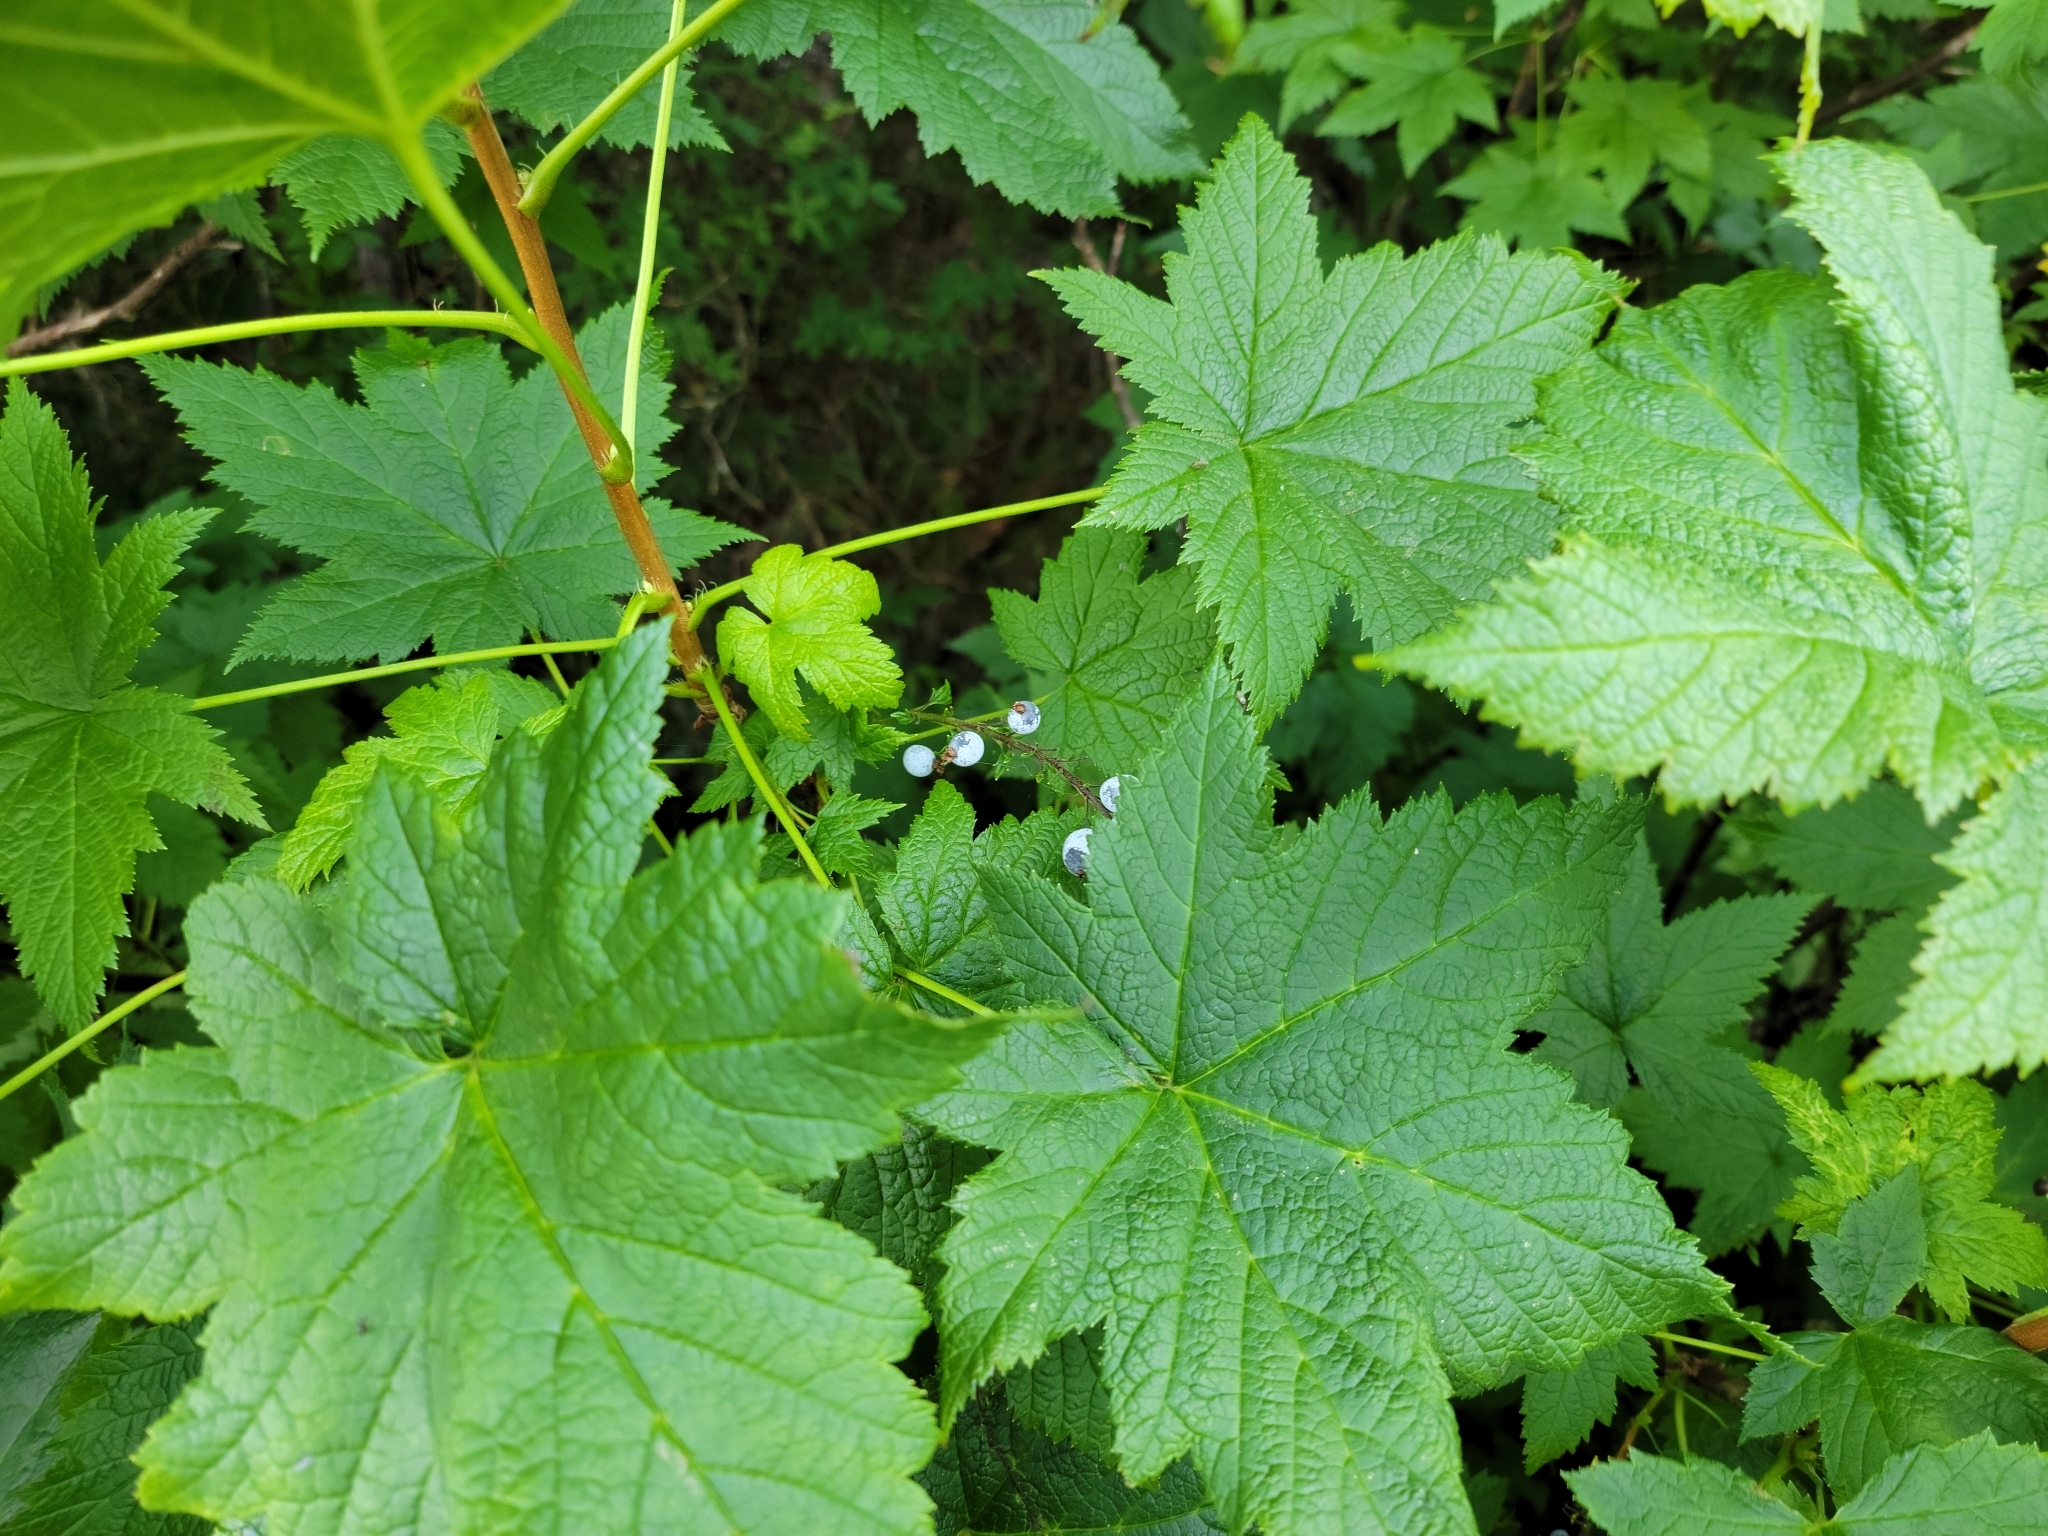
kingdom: Plantae
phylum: Tracheophyta
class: Magnoliopsida
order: Saxifragales
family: Grossulariaceae
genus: Ribes
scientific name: Ribes bracteosum
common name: California black currant
